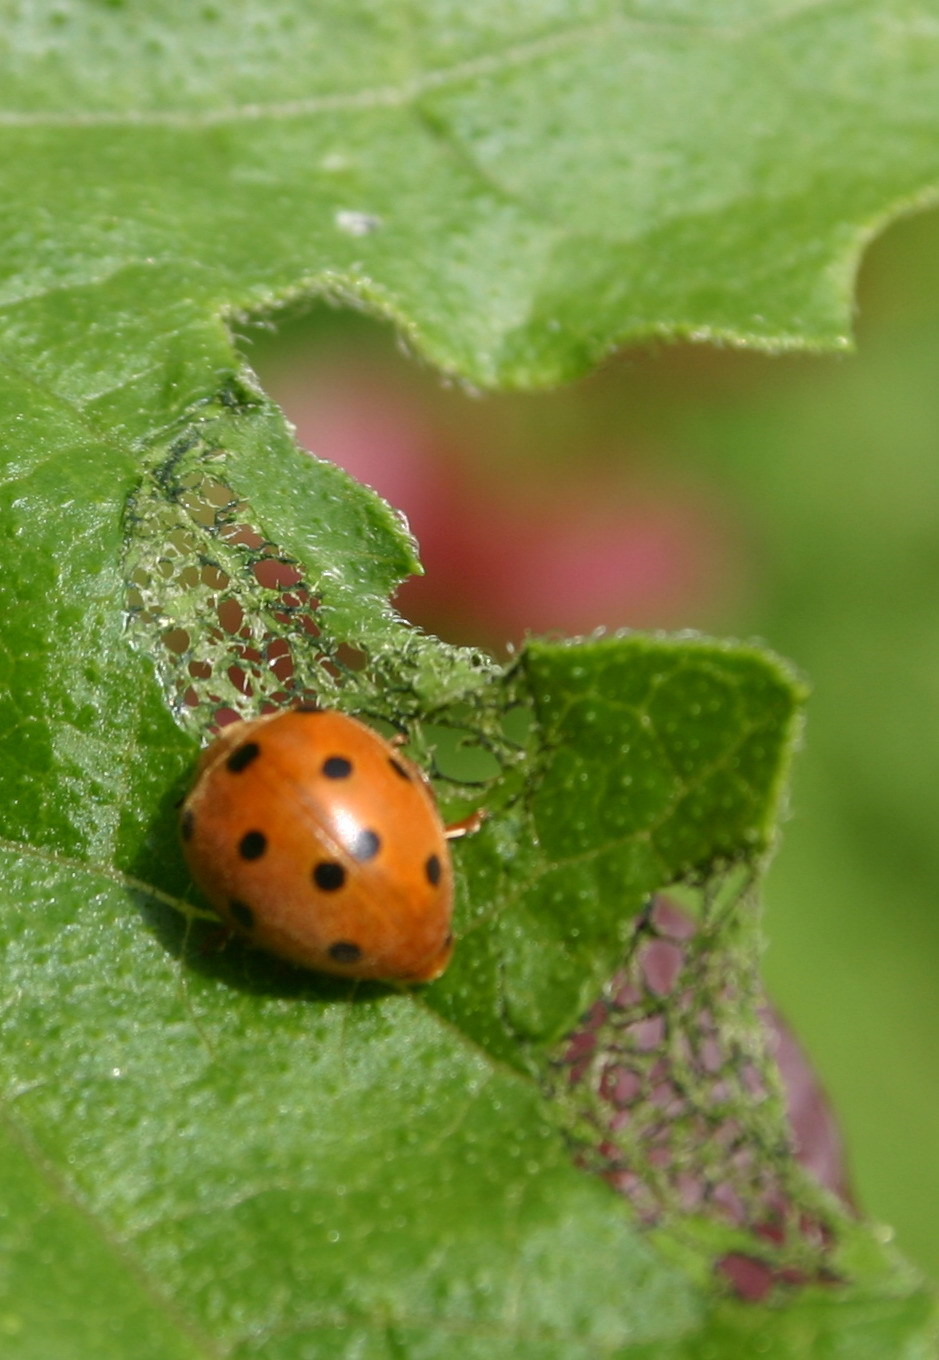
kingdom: Animalia
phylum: Arthropoda
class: Insecta
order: Coleoptera
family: Coccinellidae
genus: Henosepilachna
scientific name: Henosepilachna argus
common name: Bryony ladybird
